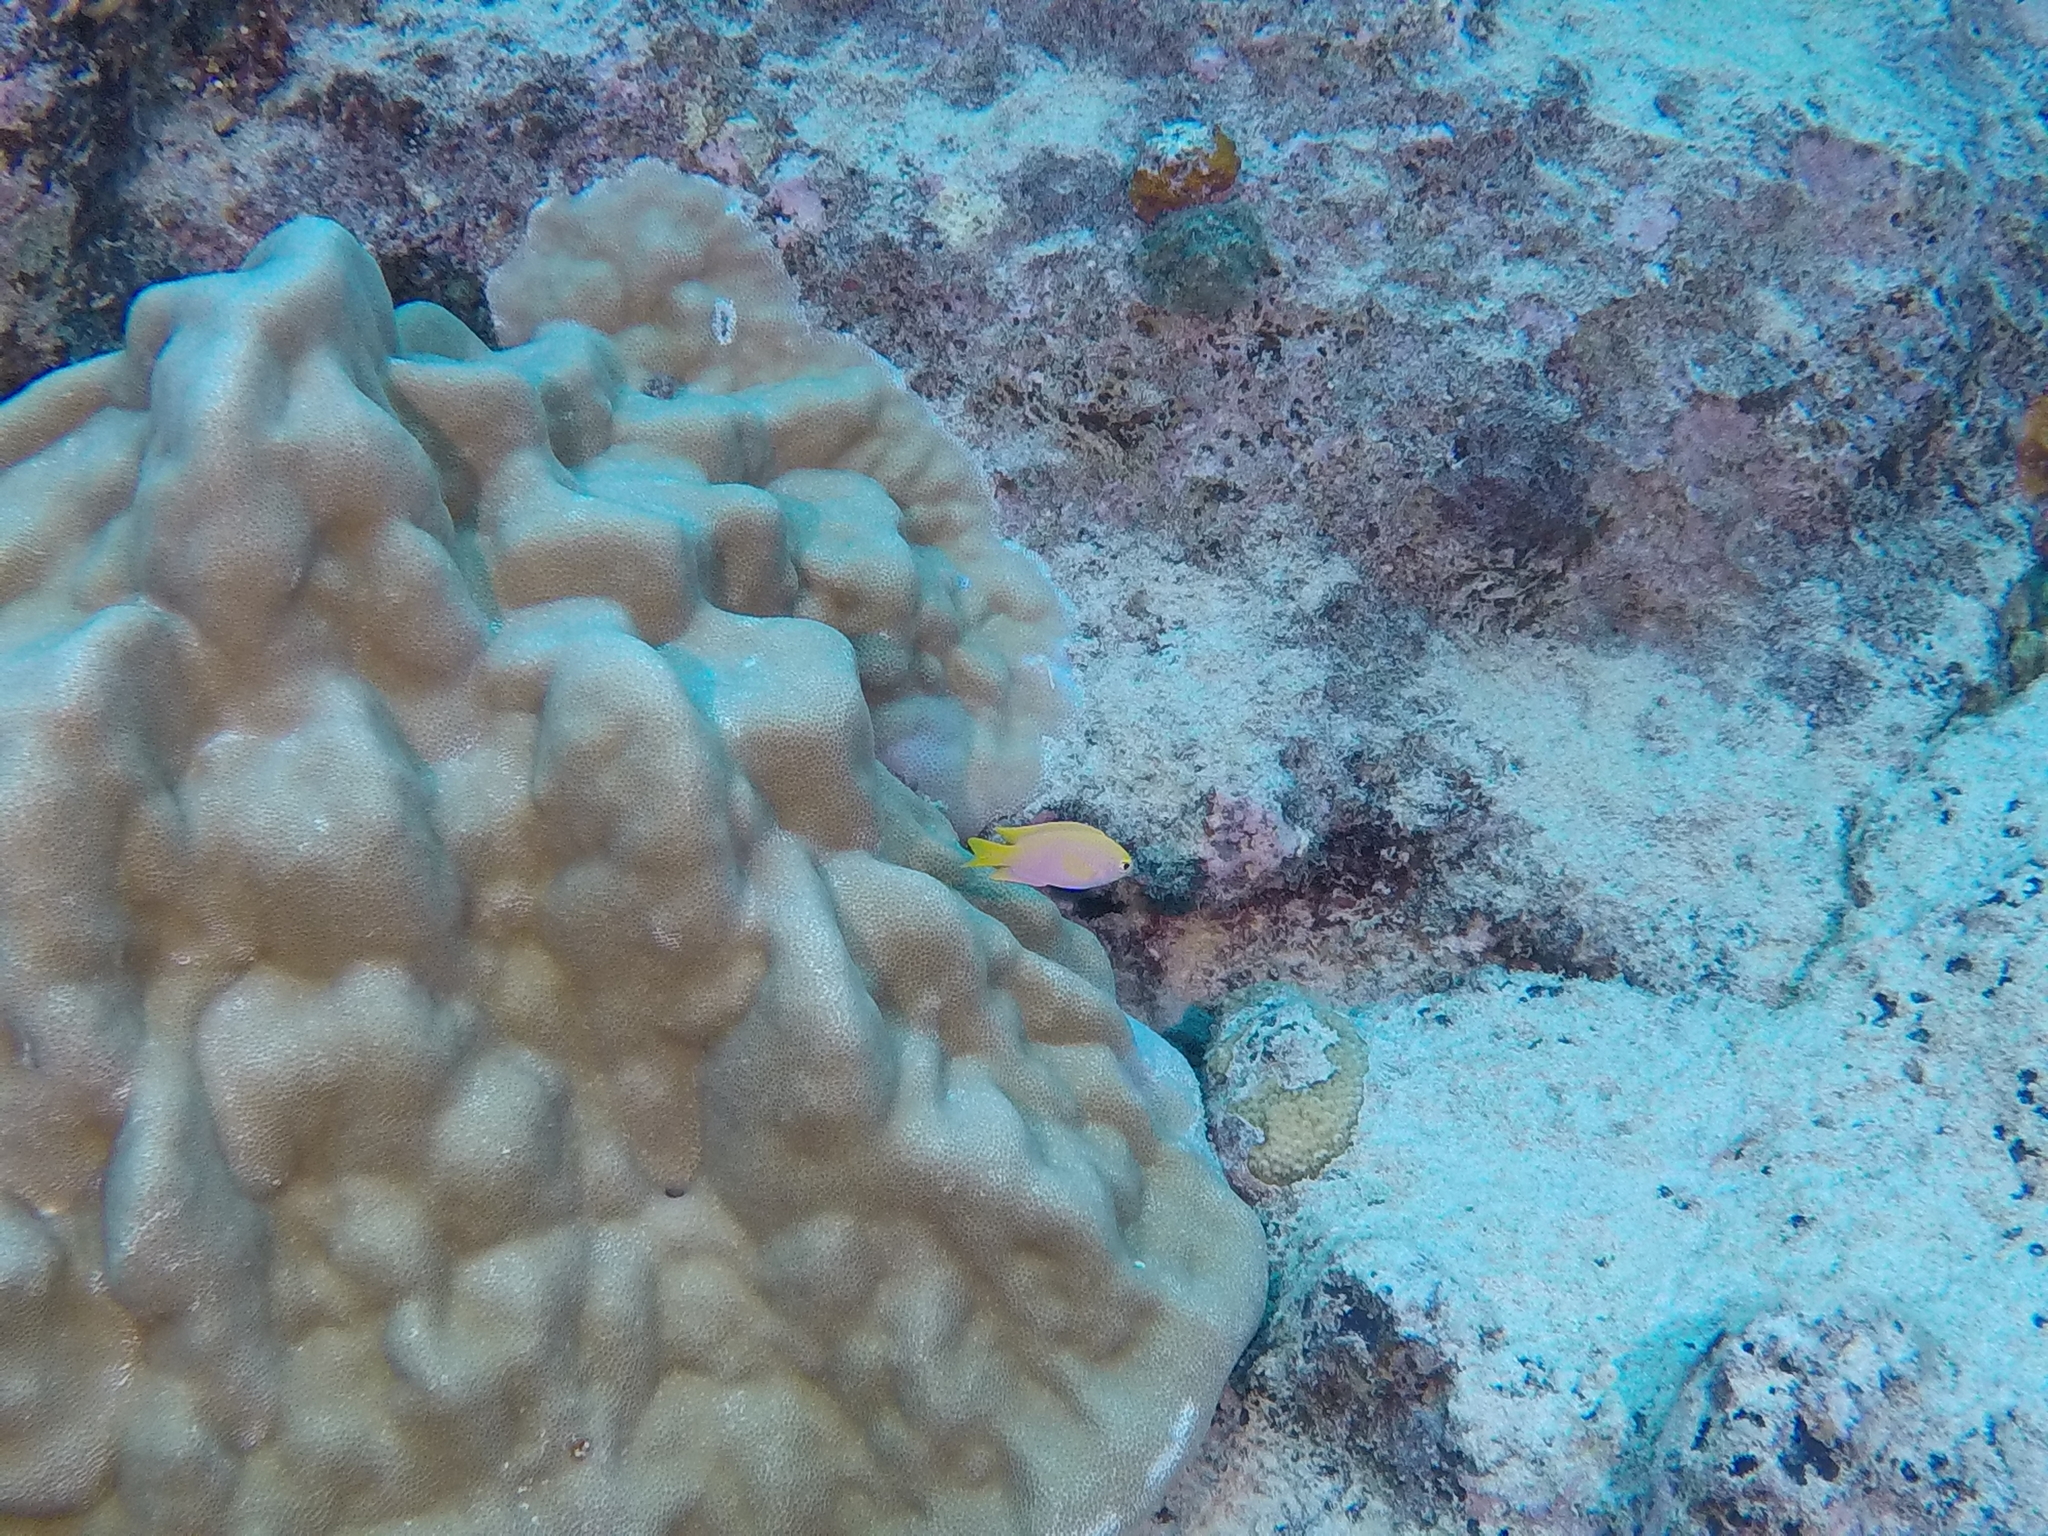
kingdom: Animalia
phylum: Chordata
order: Perciformes
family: Pomacentridae
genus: Chrysiptera
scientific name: Chrysiptera galba
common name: Canary demoiselle
